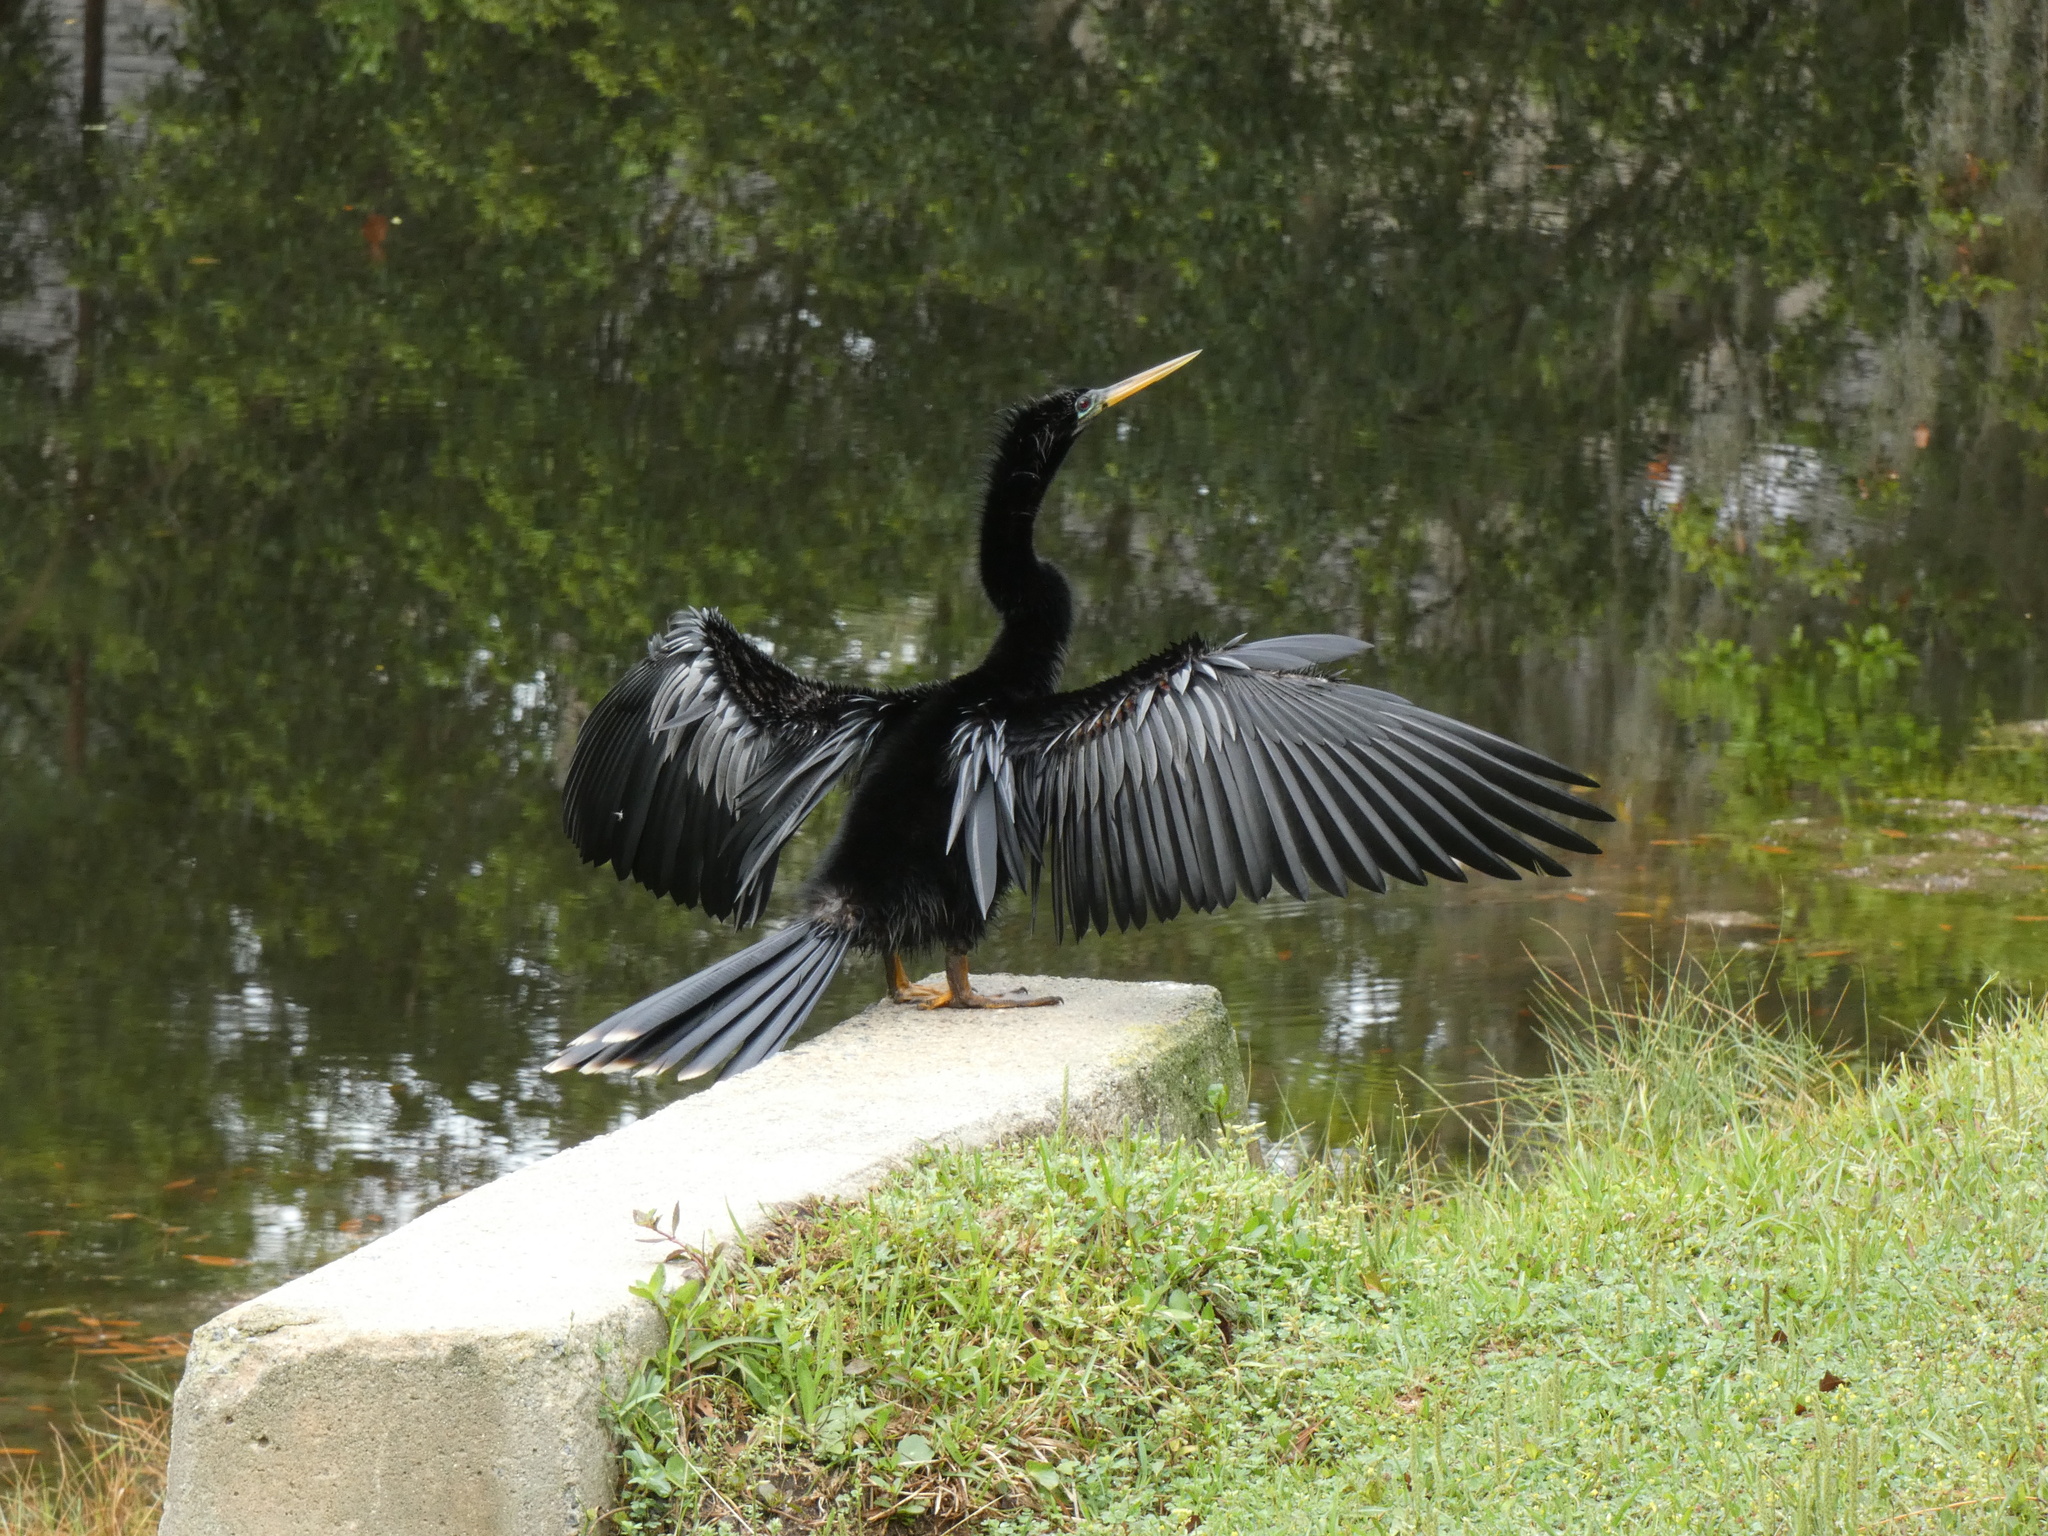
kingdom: Animalia
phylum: Chordata
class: Aves
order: Suliformes
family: Anhingidae
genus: Anhinga
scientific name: Anhinga anhinga
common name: Anhinga
